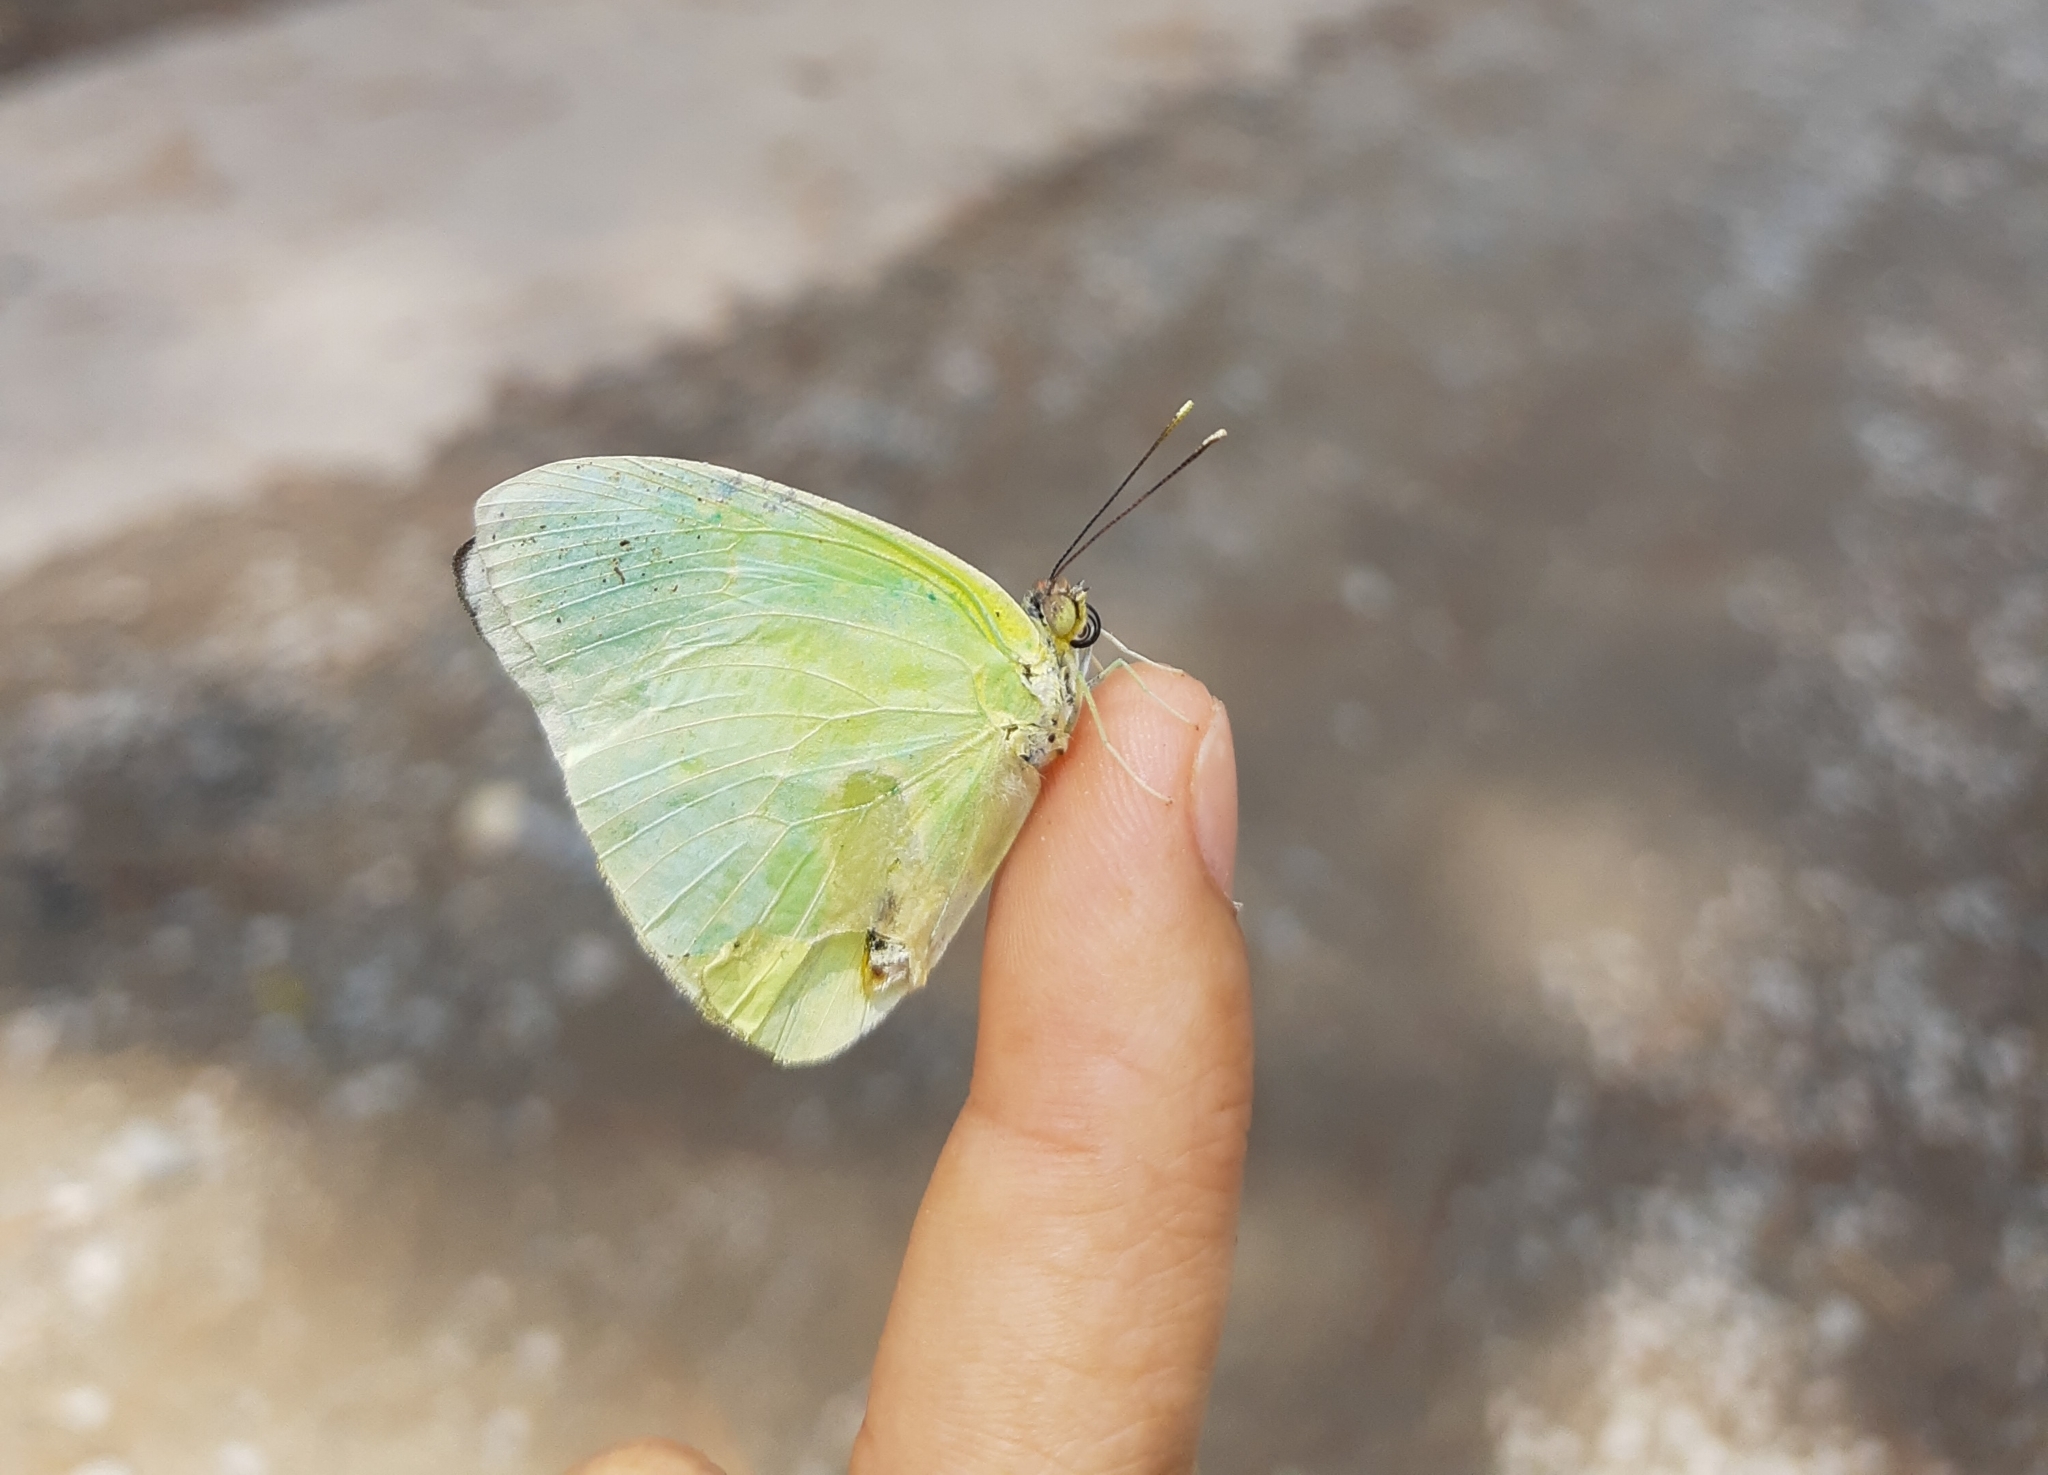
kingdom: Animalia
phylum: Arthropoda
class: Insecta
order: Lepidoptera
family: Pieridae
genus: Aphrissa
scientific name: Aphrissa statira
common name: Statira sulphur
